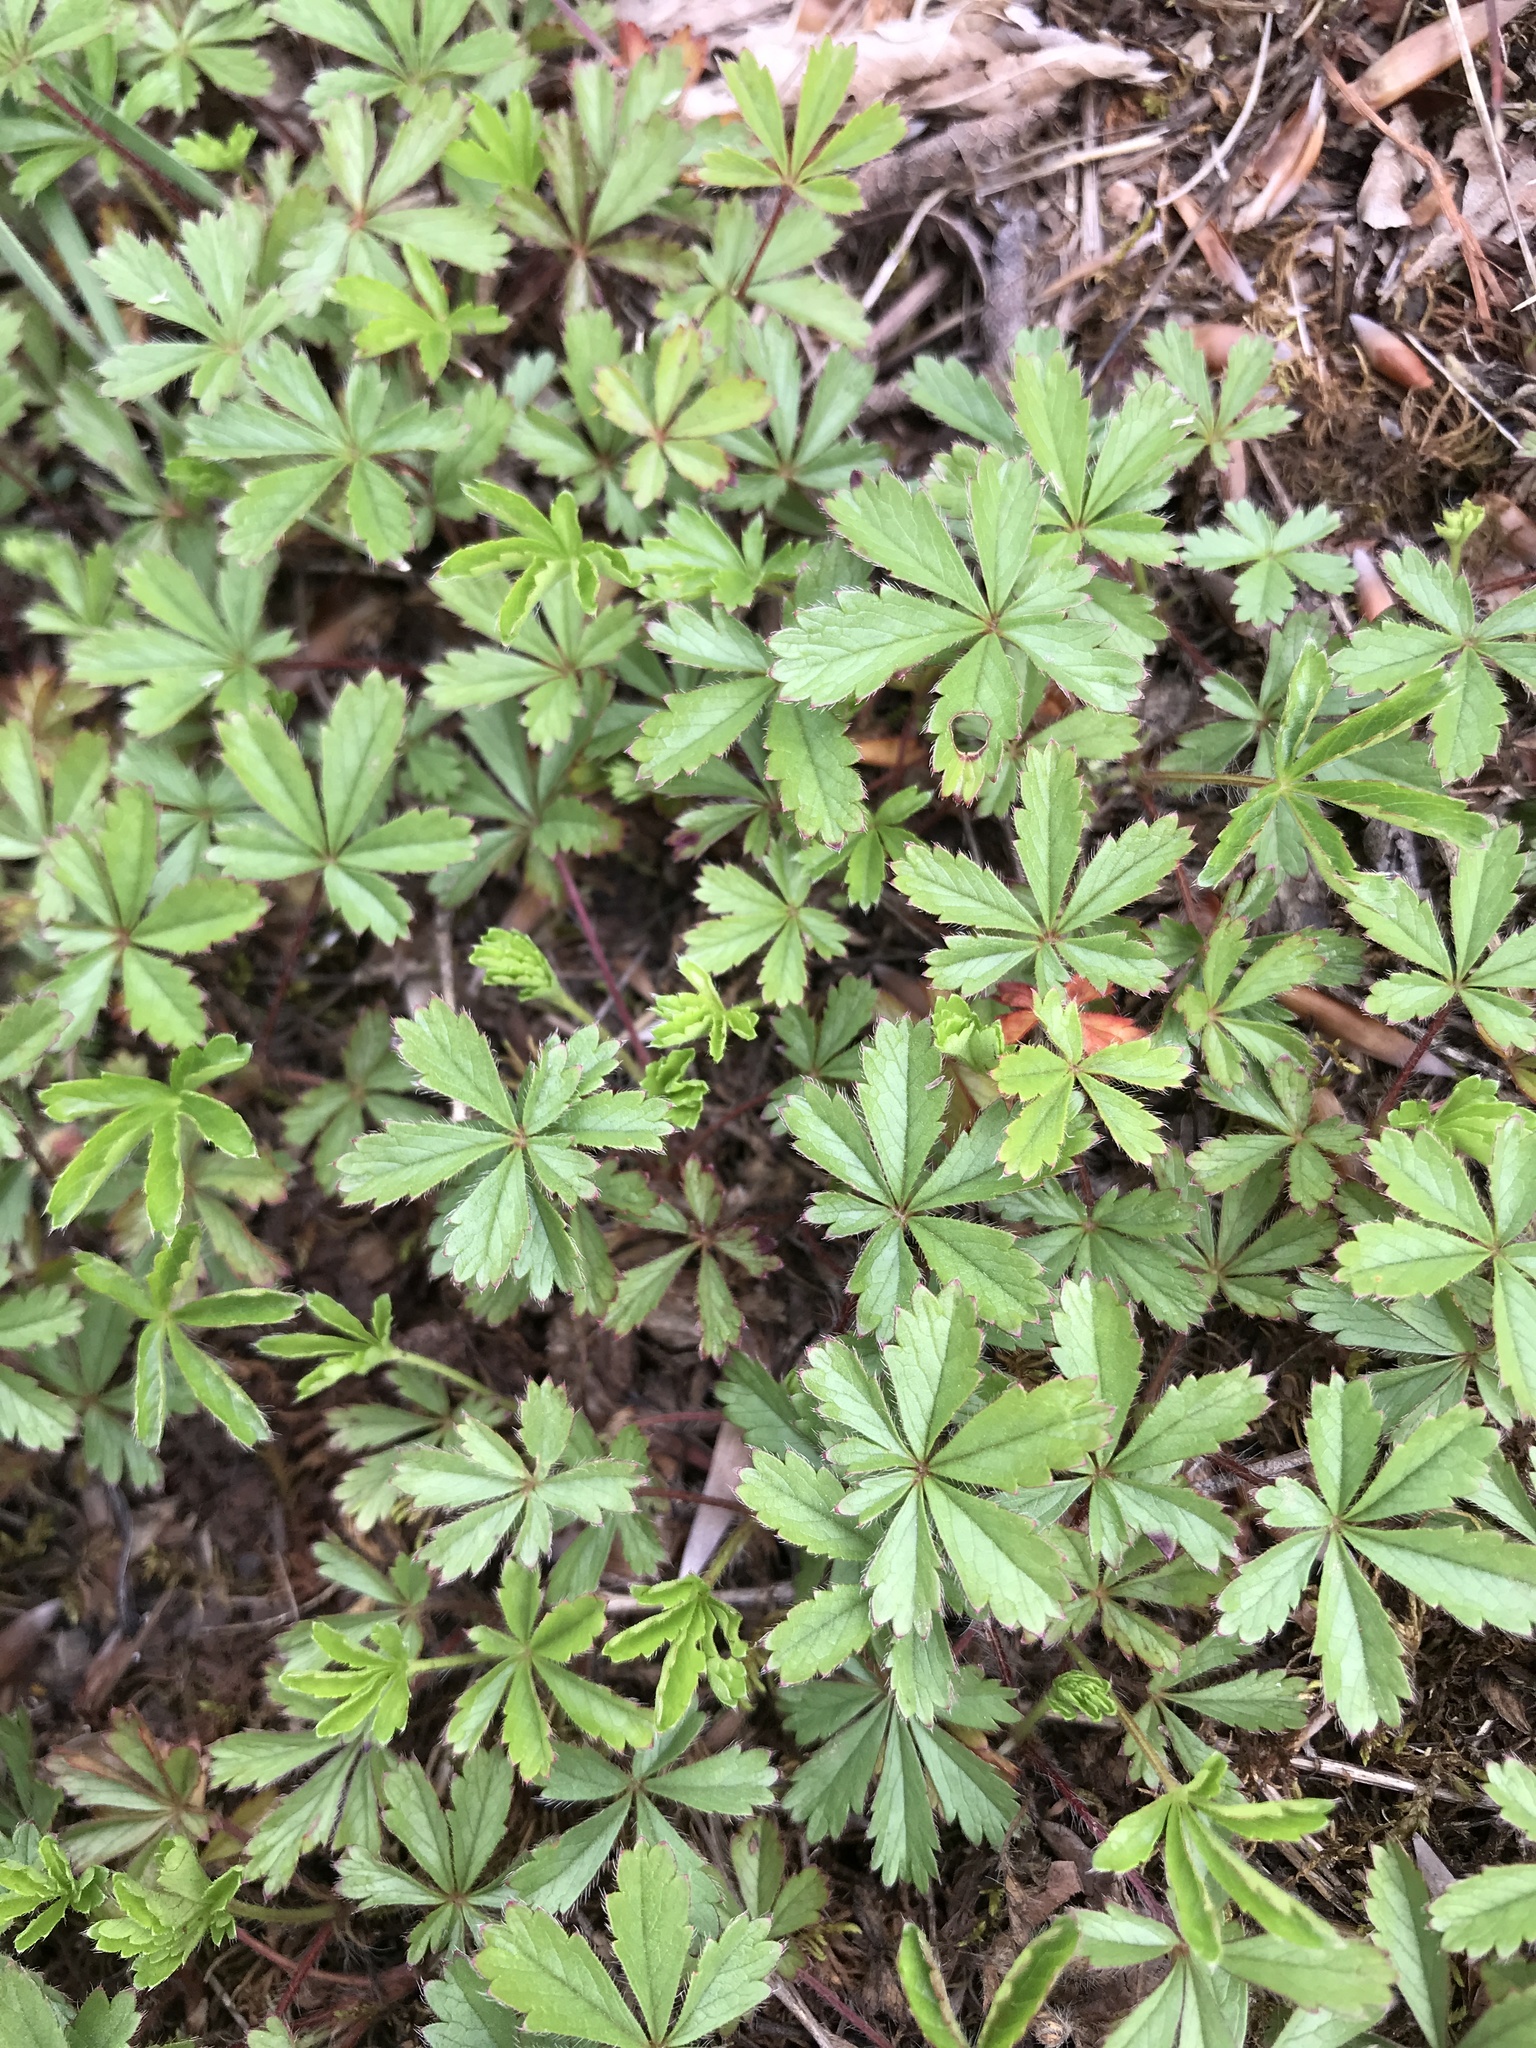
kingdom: Plantae
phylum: Tracheophyta
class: Magnoliopsida
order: Rosales
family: Rosaceae
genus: Potentilla
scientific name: Potentilla reptans
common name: Creeping cinquefoil
